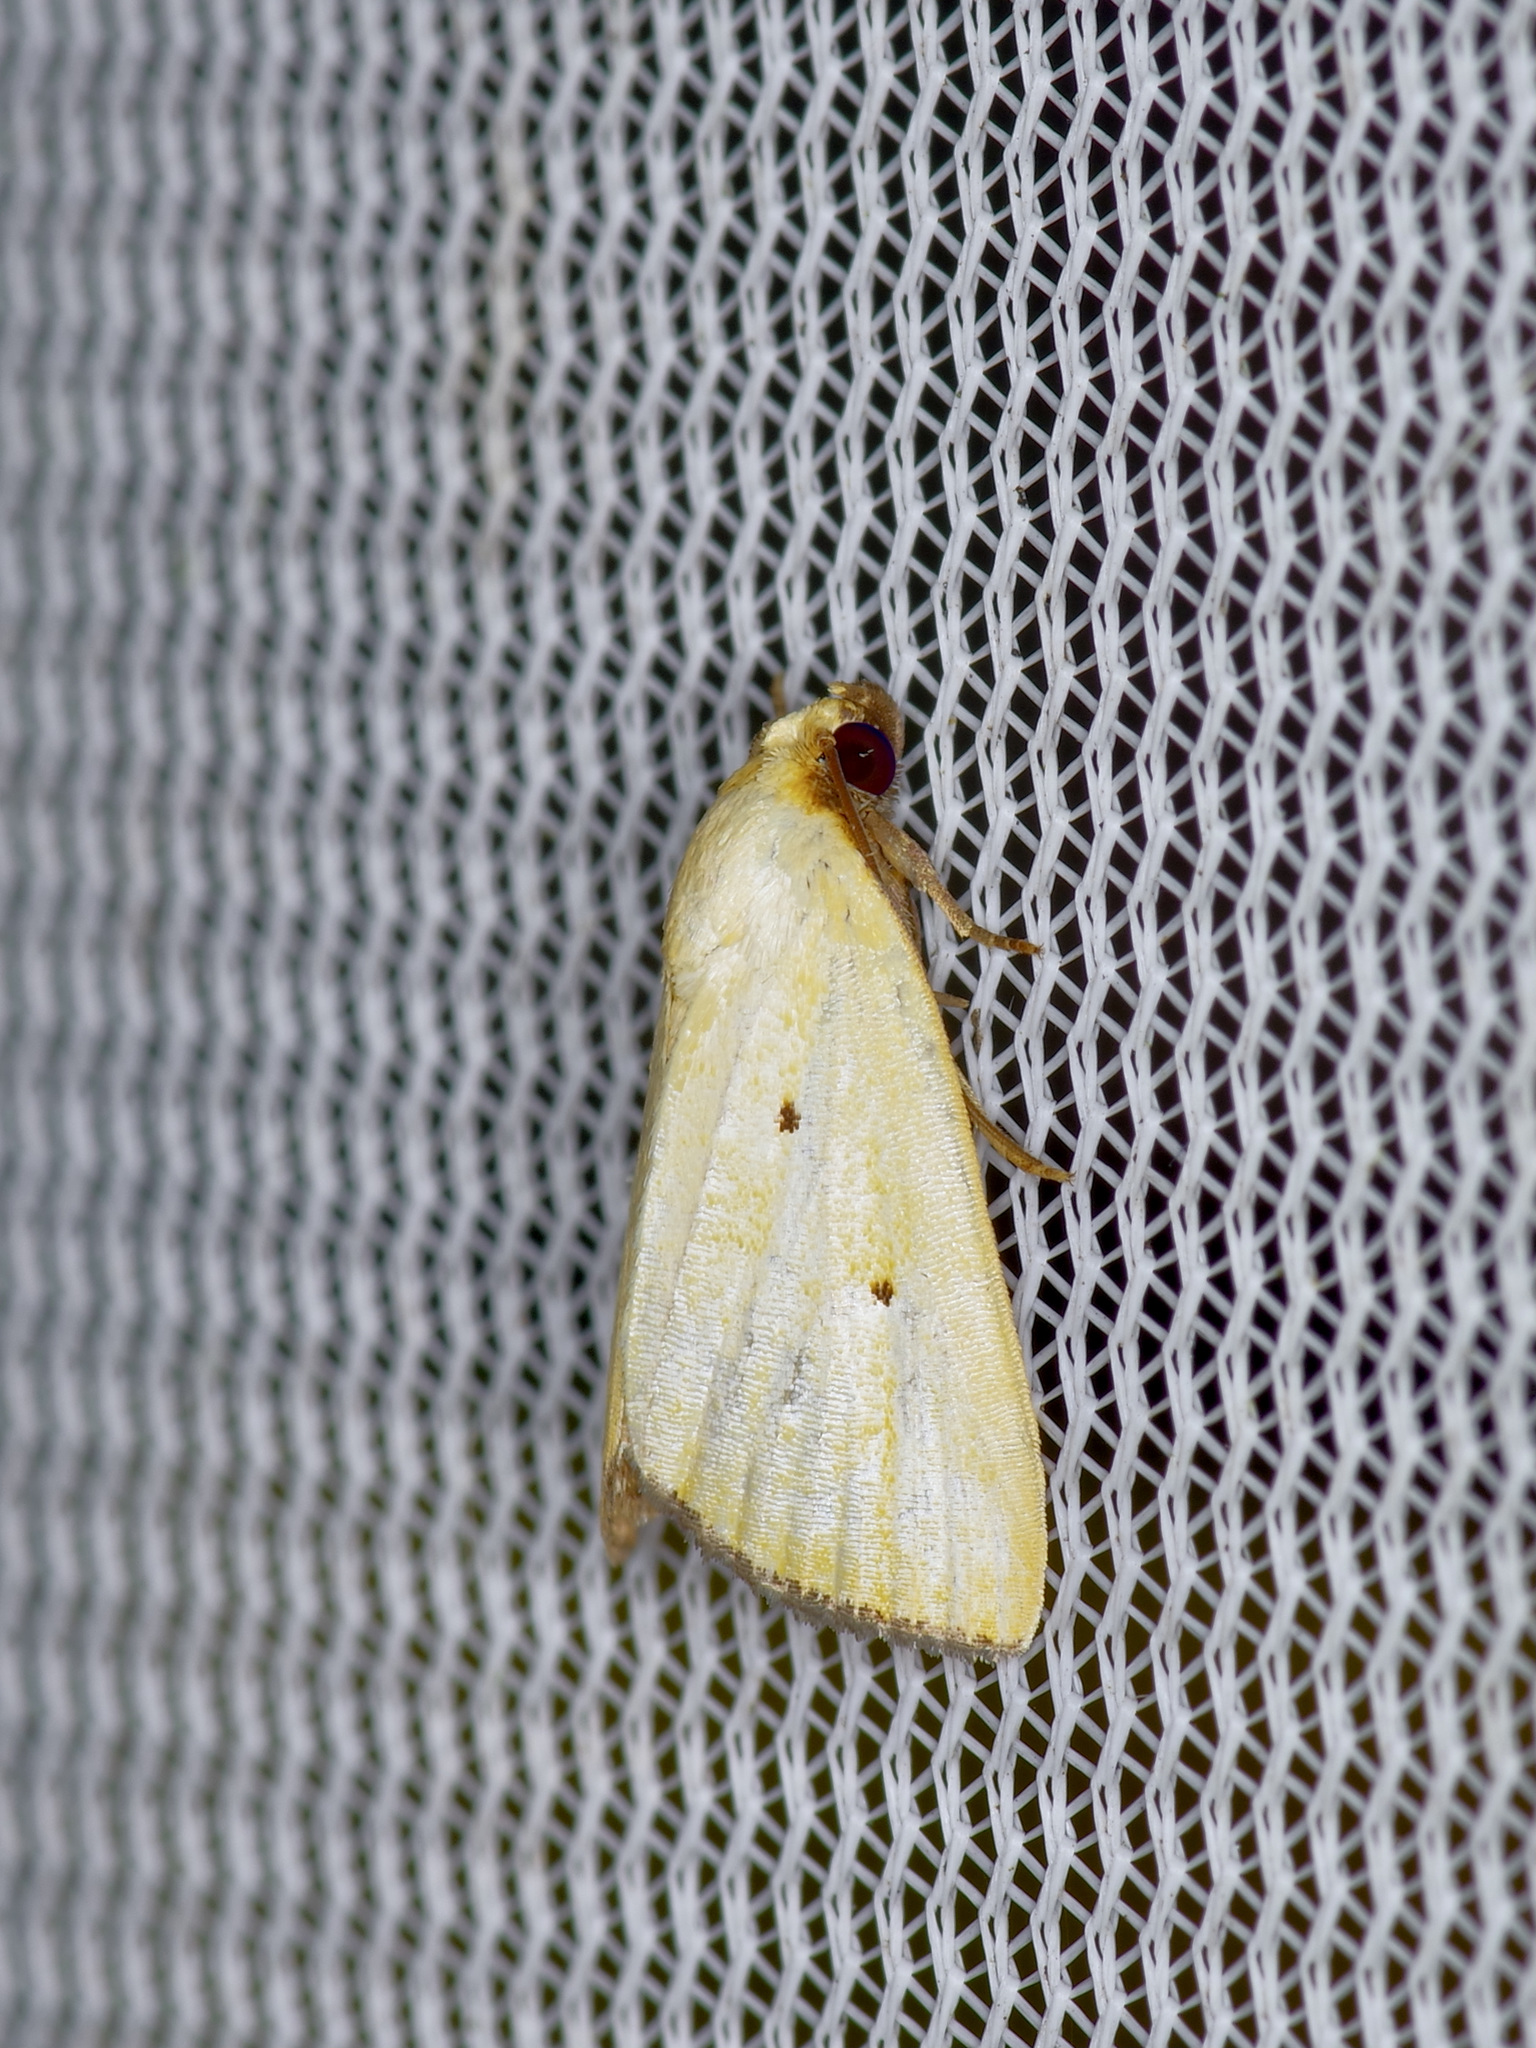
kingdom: Animalia
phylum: Arthropoda
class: Insecta
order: Lepidoptera
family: Noctuidae
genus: Marimatha
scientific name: Marimatha nigrofimbria
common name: Black-bordered lemon moth
